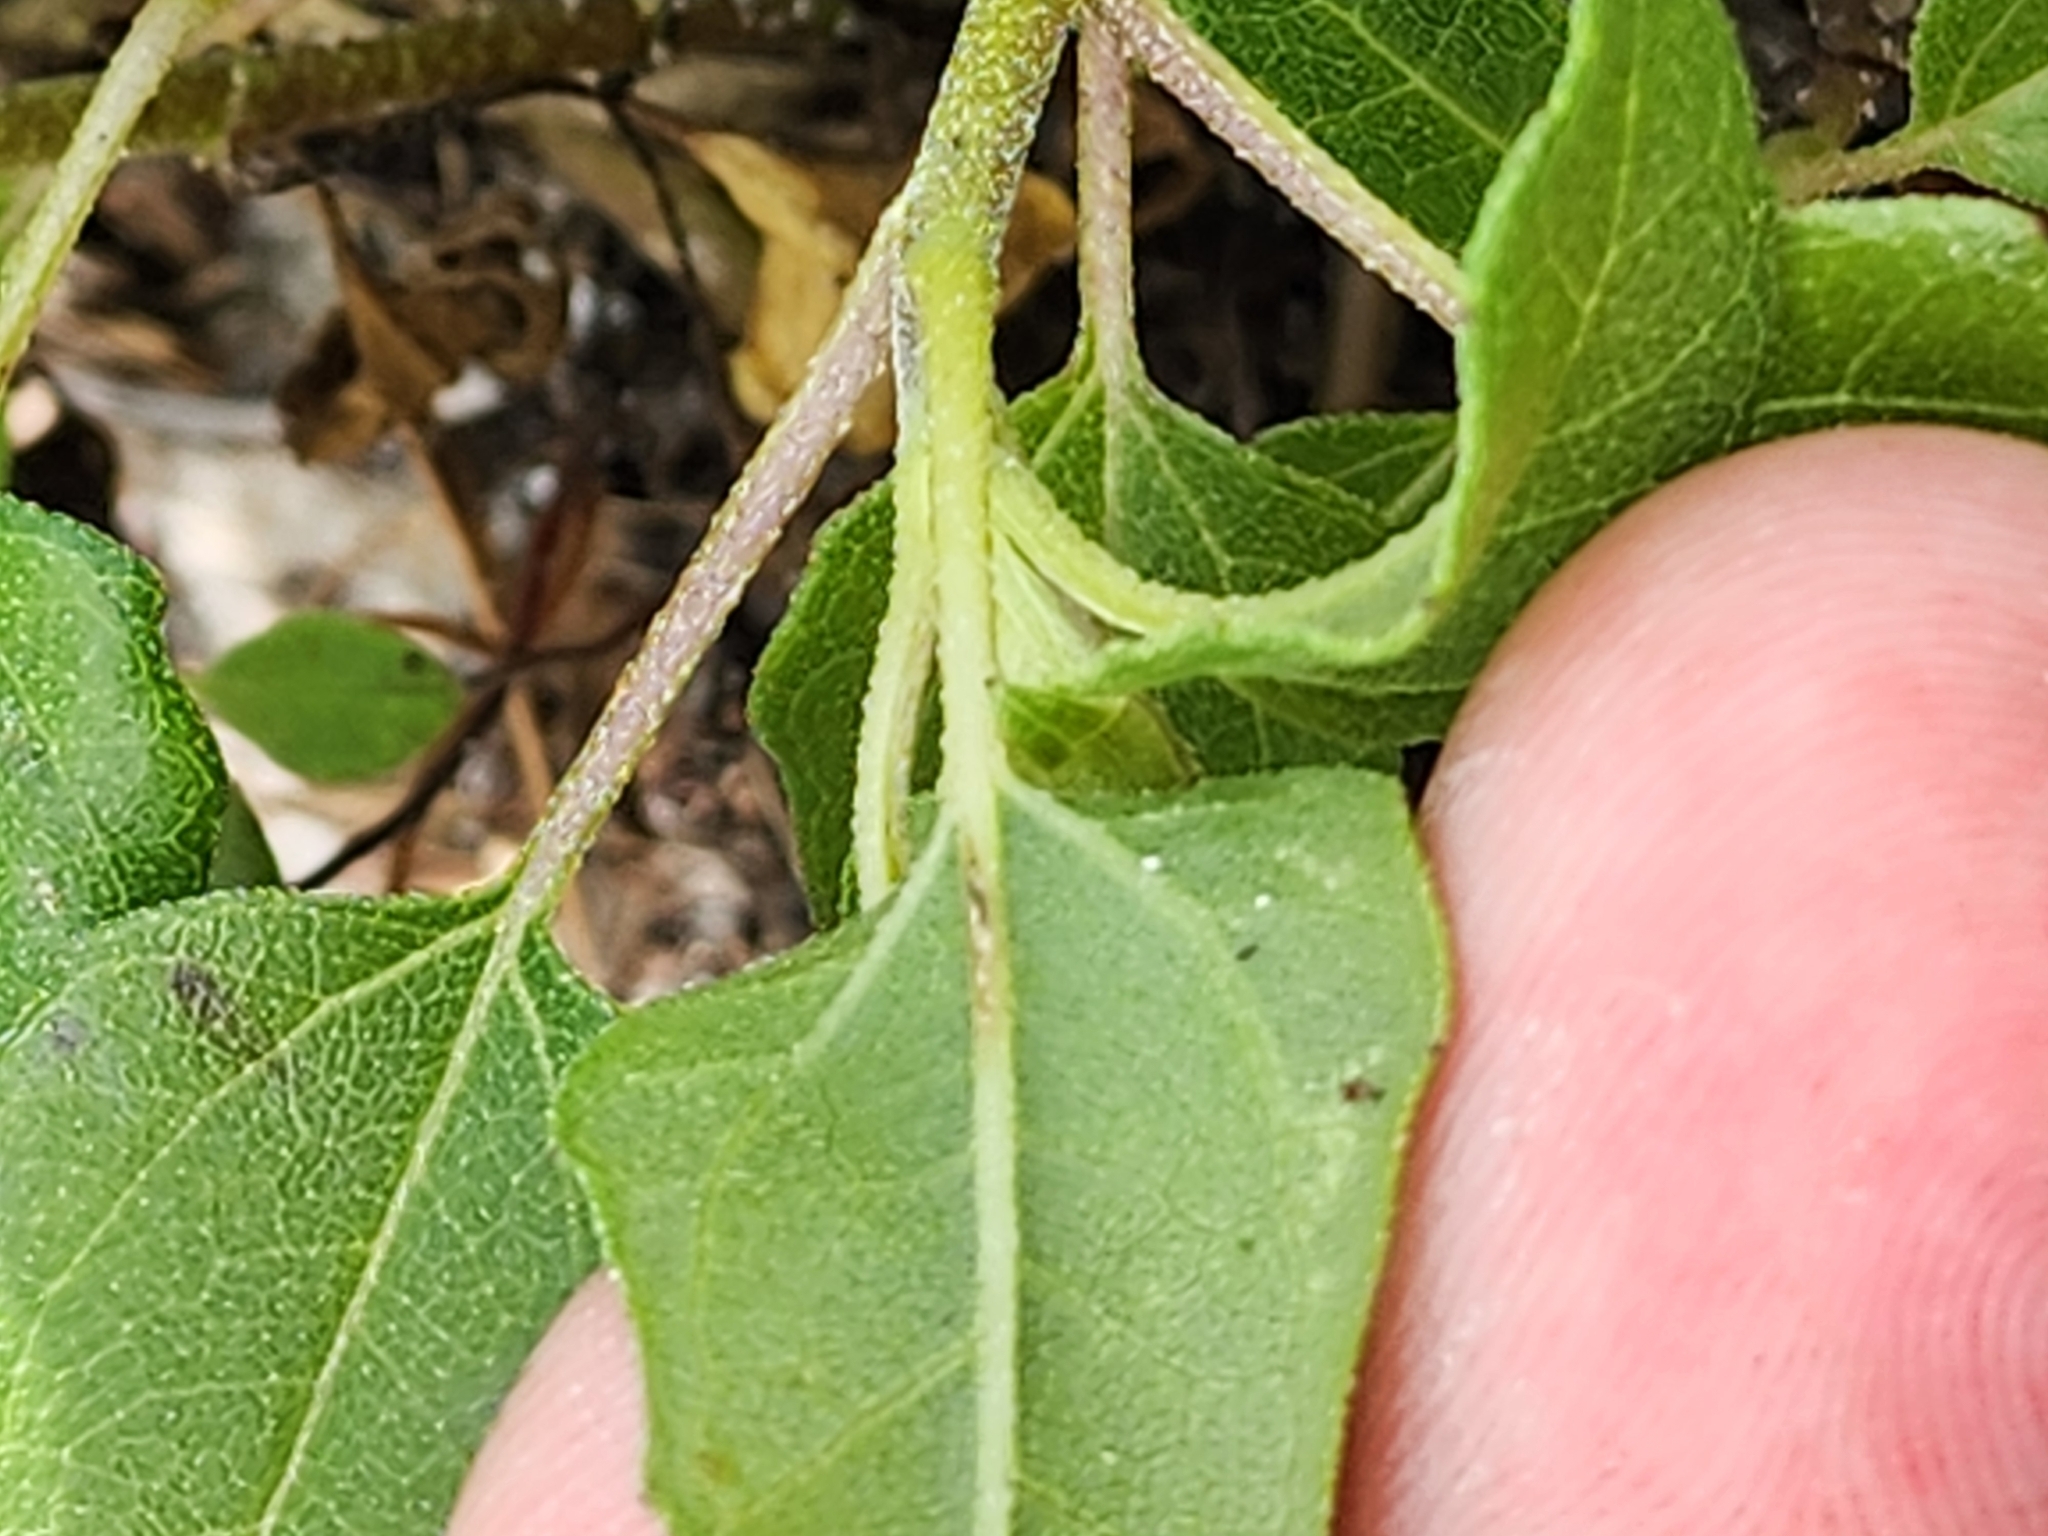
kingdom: Plantae
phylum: Tracheophyta
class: Magnoliopsida
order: Asterales
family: Asteraceae
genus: Helianthus
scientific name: Helianthus debilis
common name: Weak sunflower
